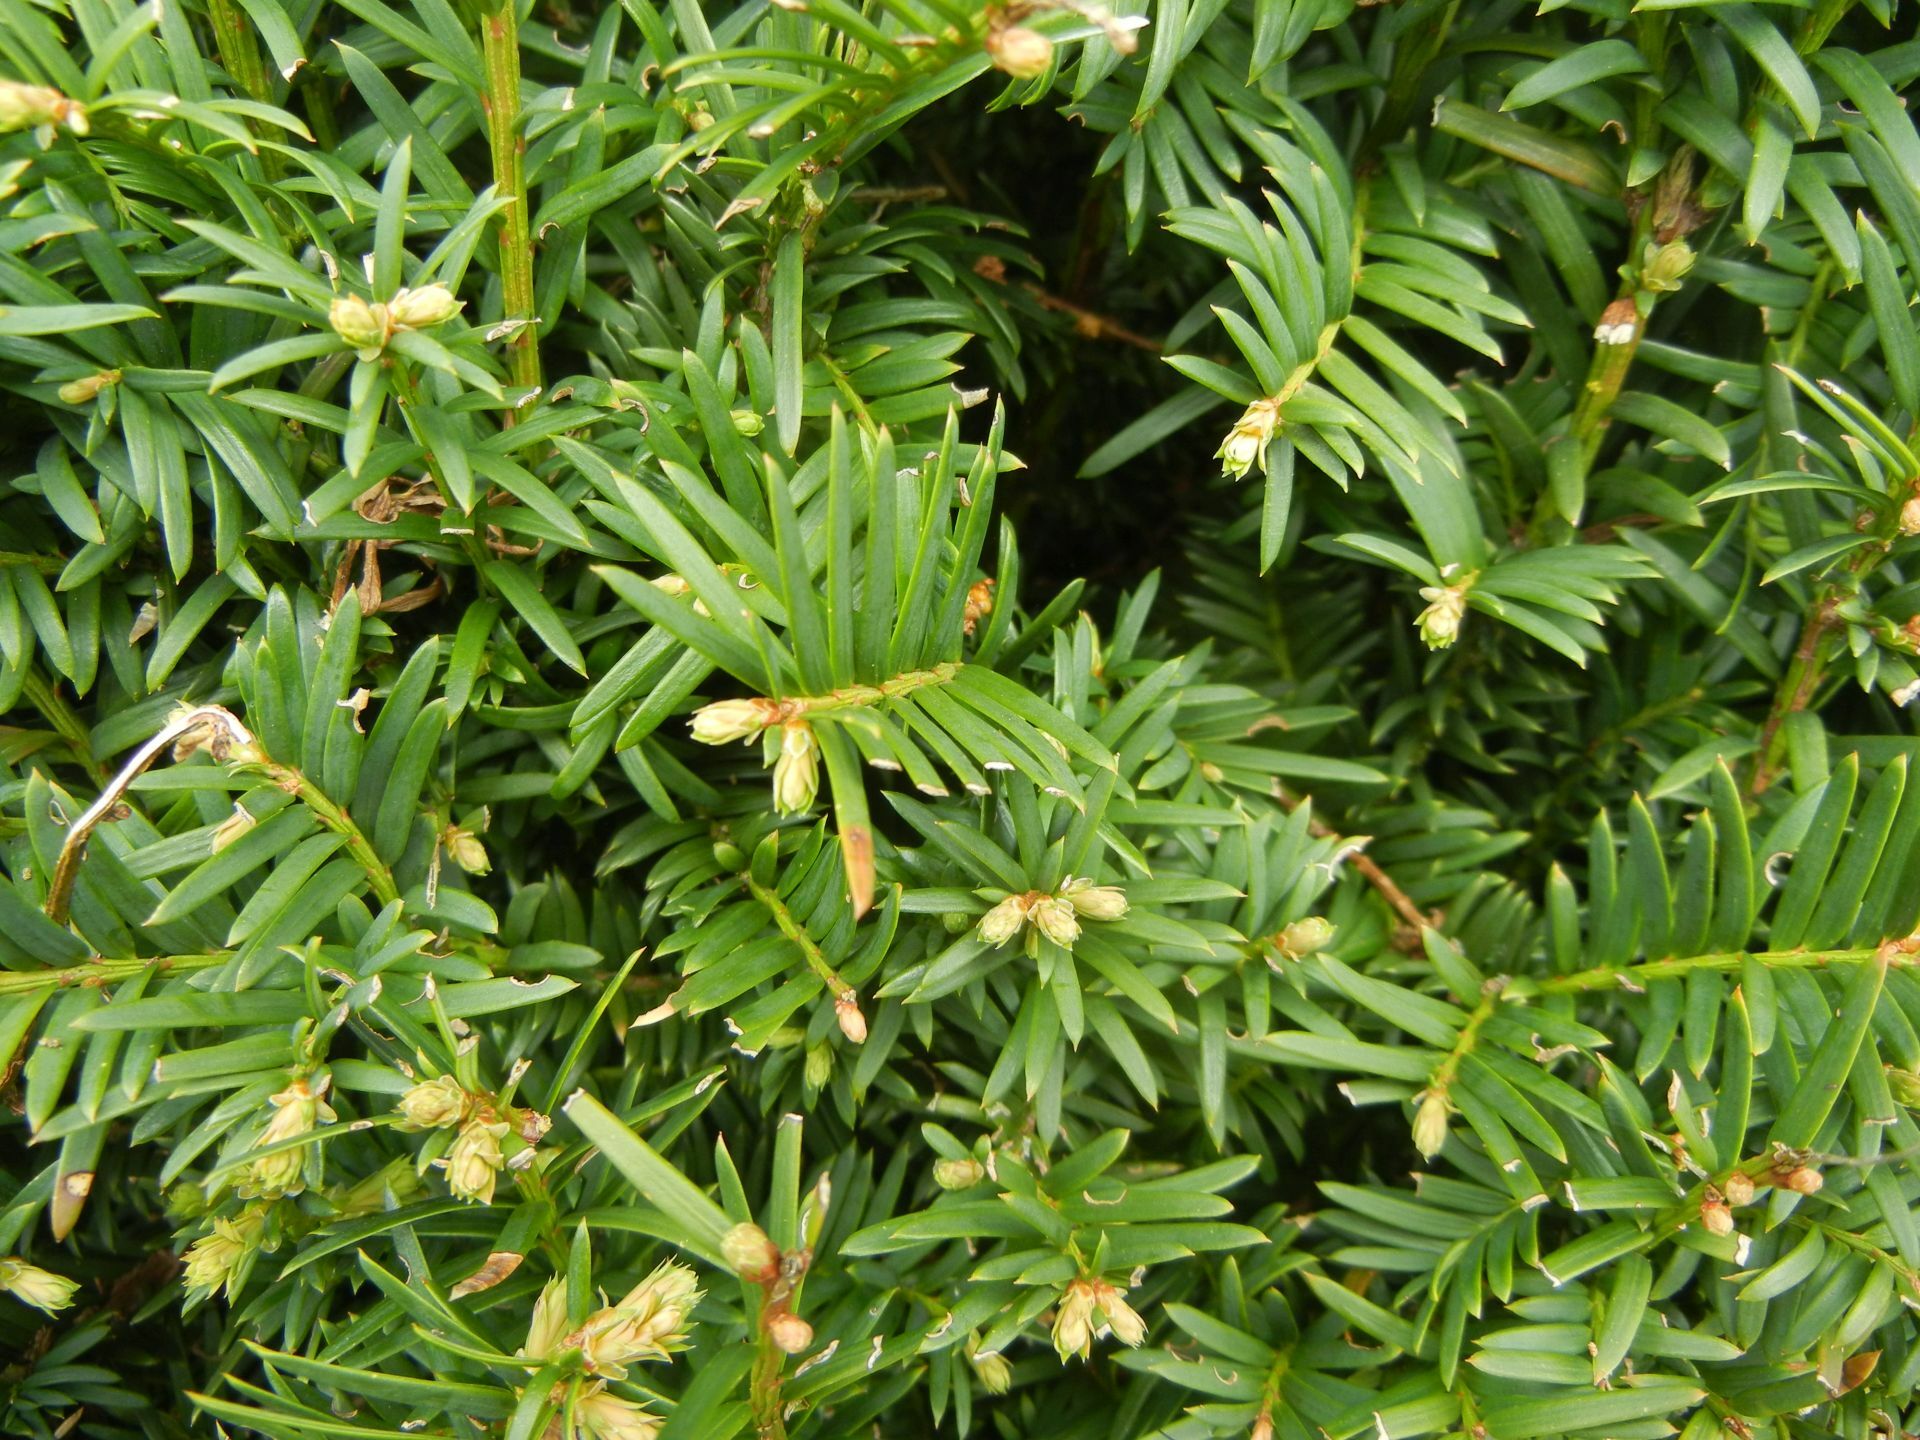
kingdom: Plantae
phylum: Tracheophyta
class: Pinopsida
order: Pinales
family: Taxaceae
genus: Taxus
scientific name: Taxus baccata
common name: Yew
